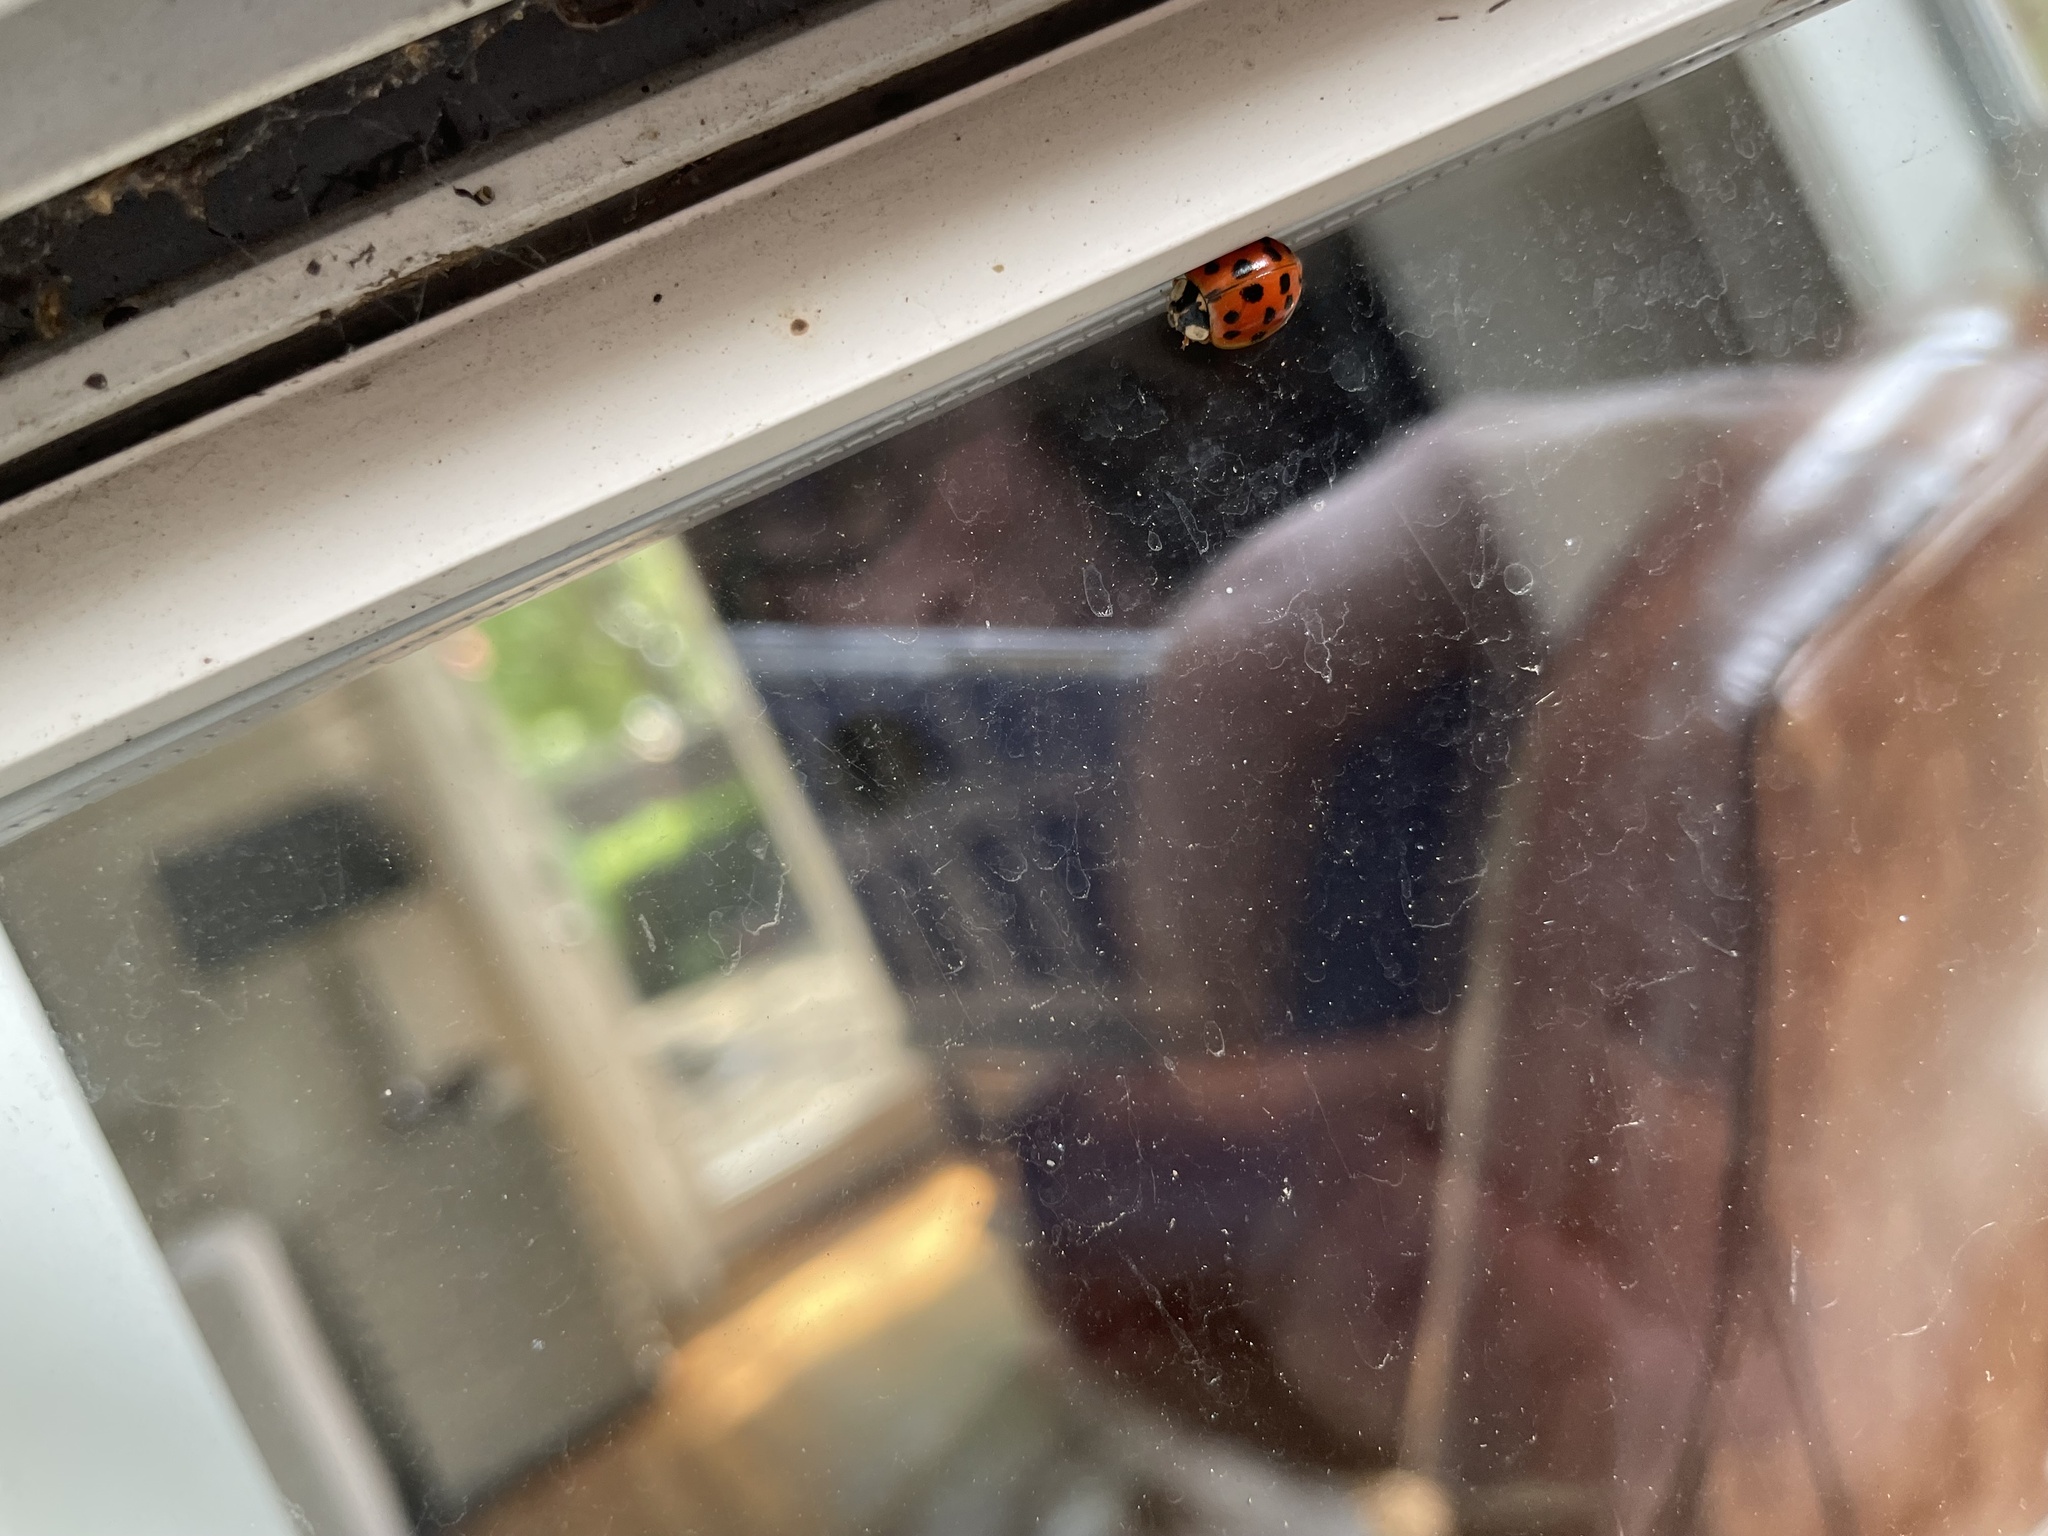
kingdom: Animalia
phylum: Arthropoda
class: Insecta
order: Coleoptera
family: Coccinellidae
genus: Harmonia
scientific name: Harmonia axyridis
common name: Harlequin ladybird
